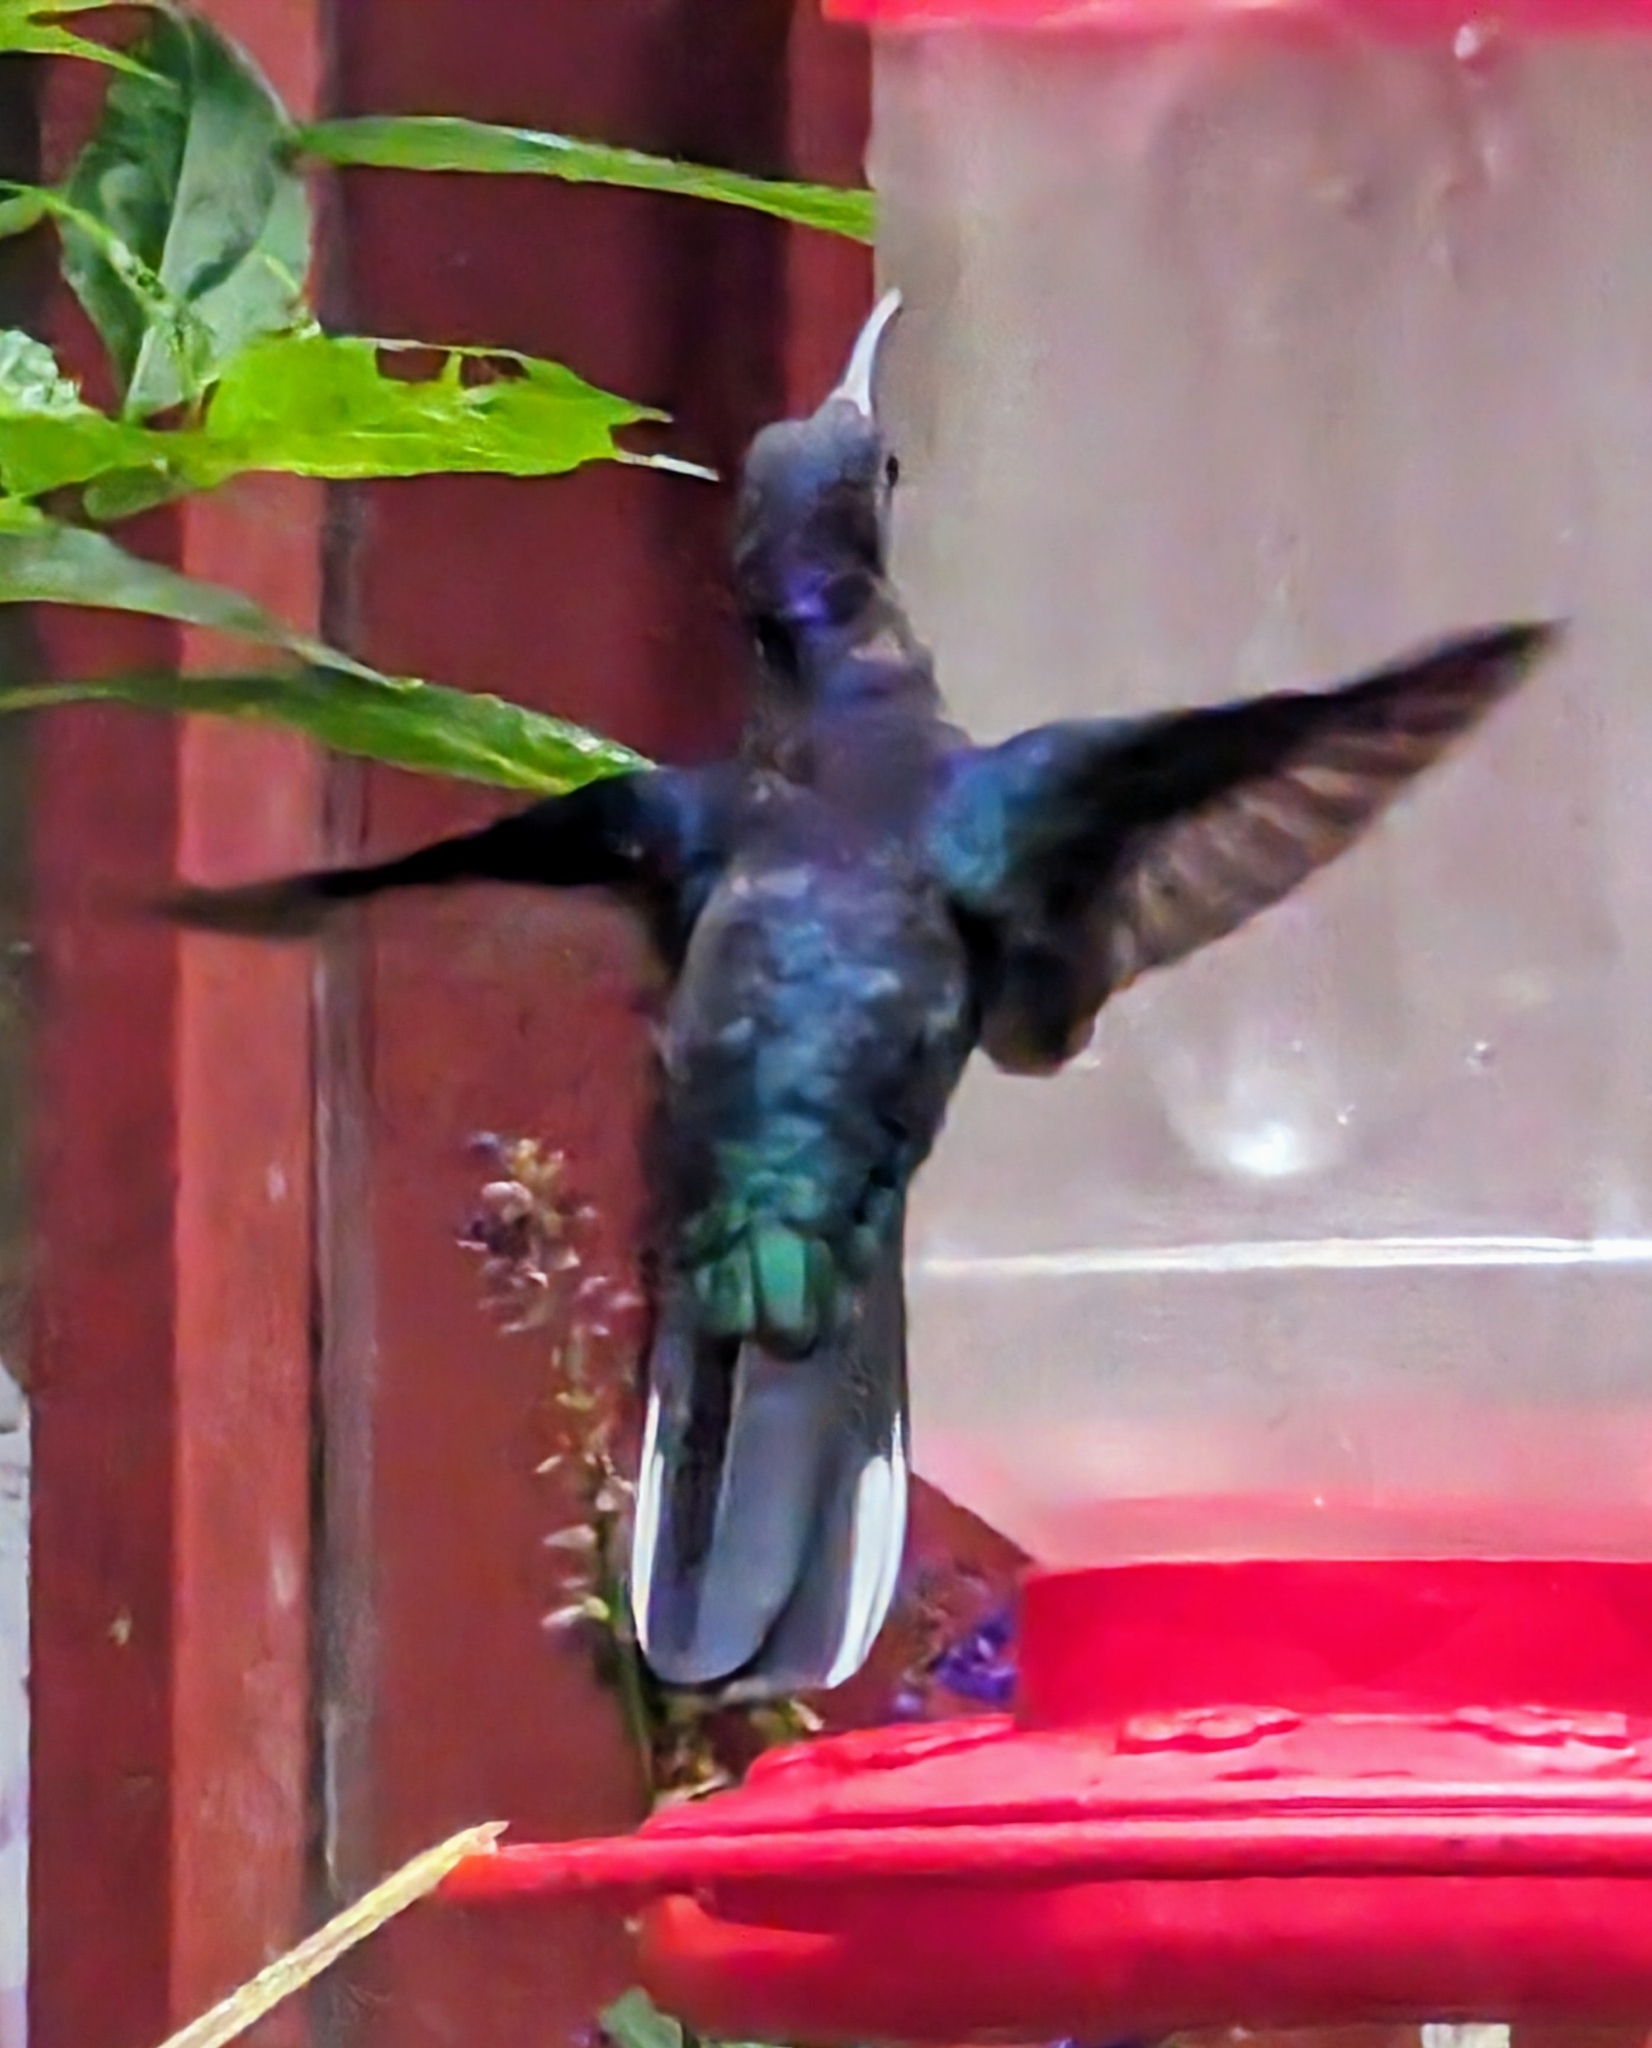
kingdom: Animalia
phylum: Chordata
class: Aves
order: Apodiformes
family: Trochilidae
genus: Campylopterus
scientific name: Campylopterus hemileucurus
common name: Violet sabrewing
